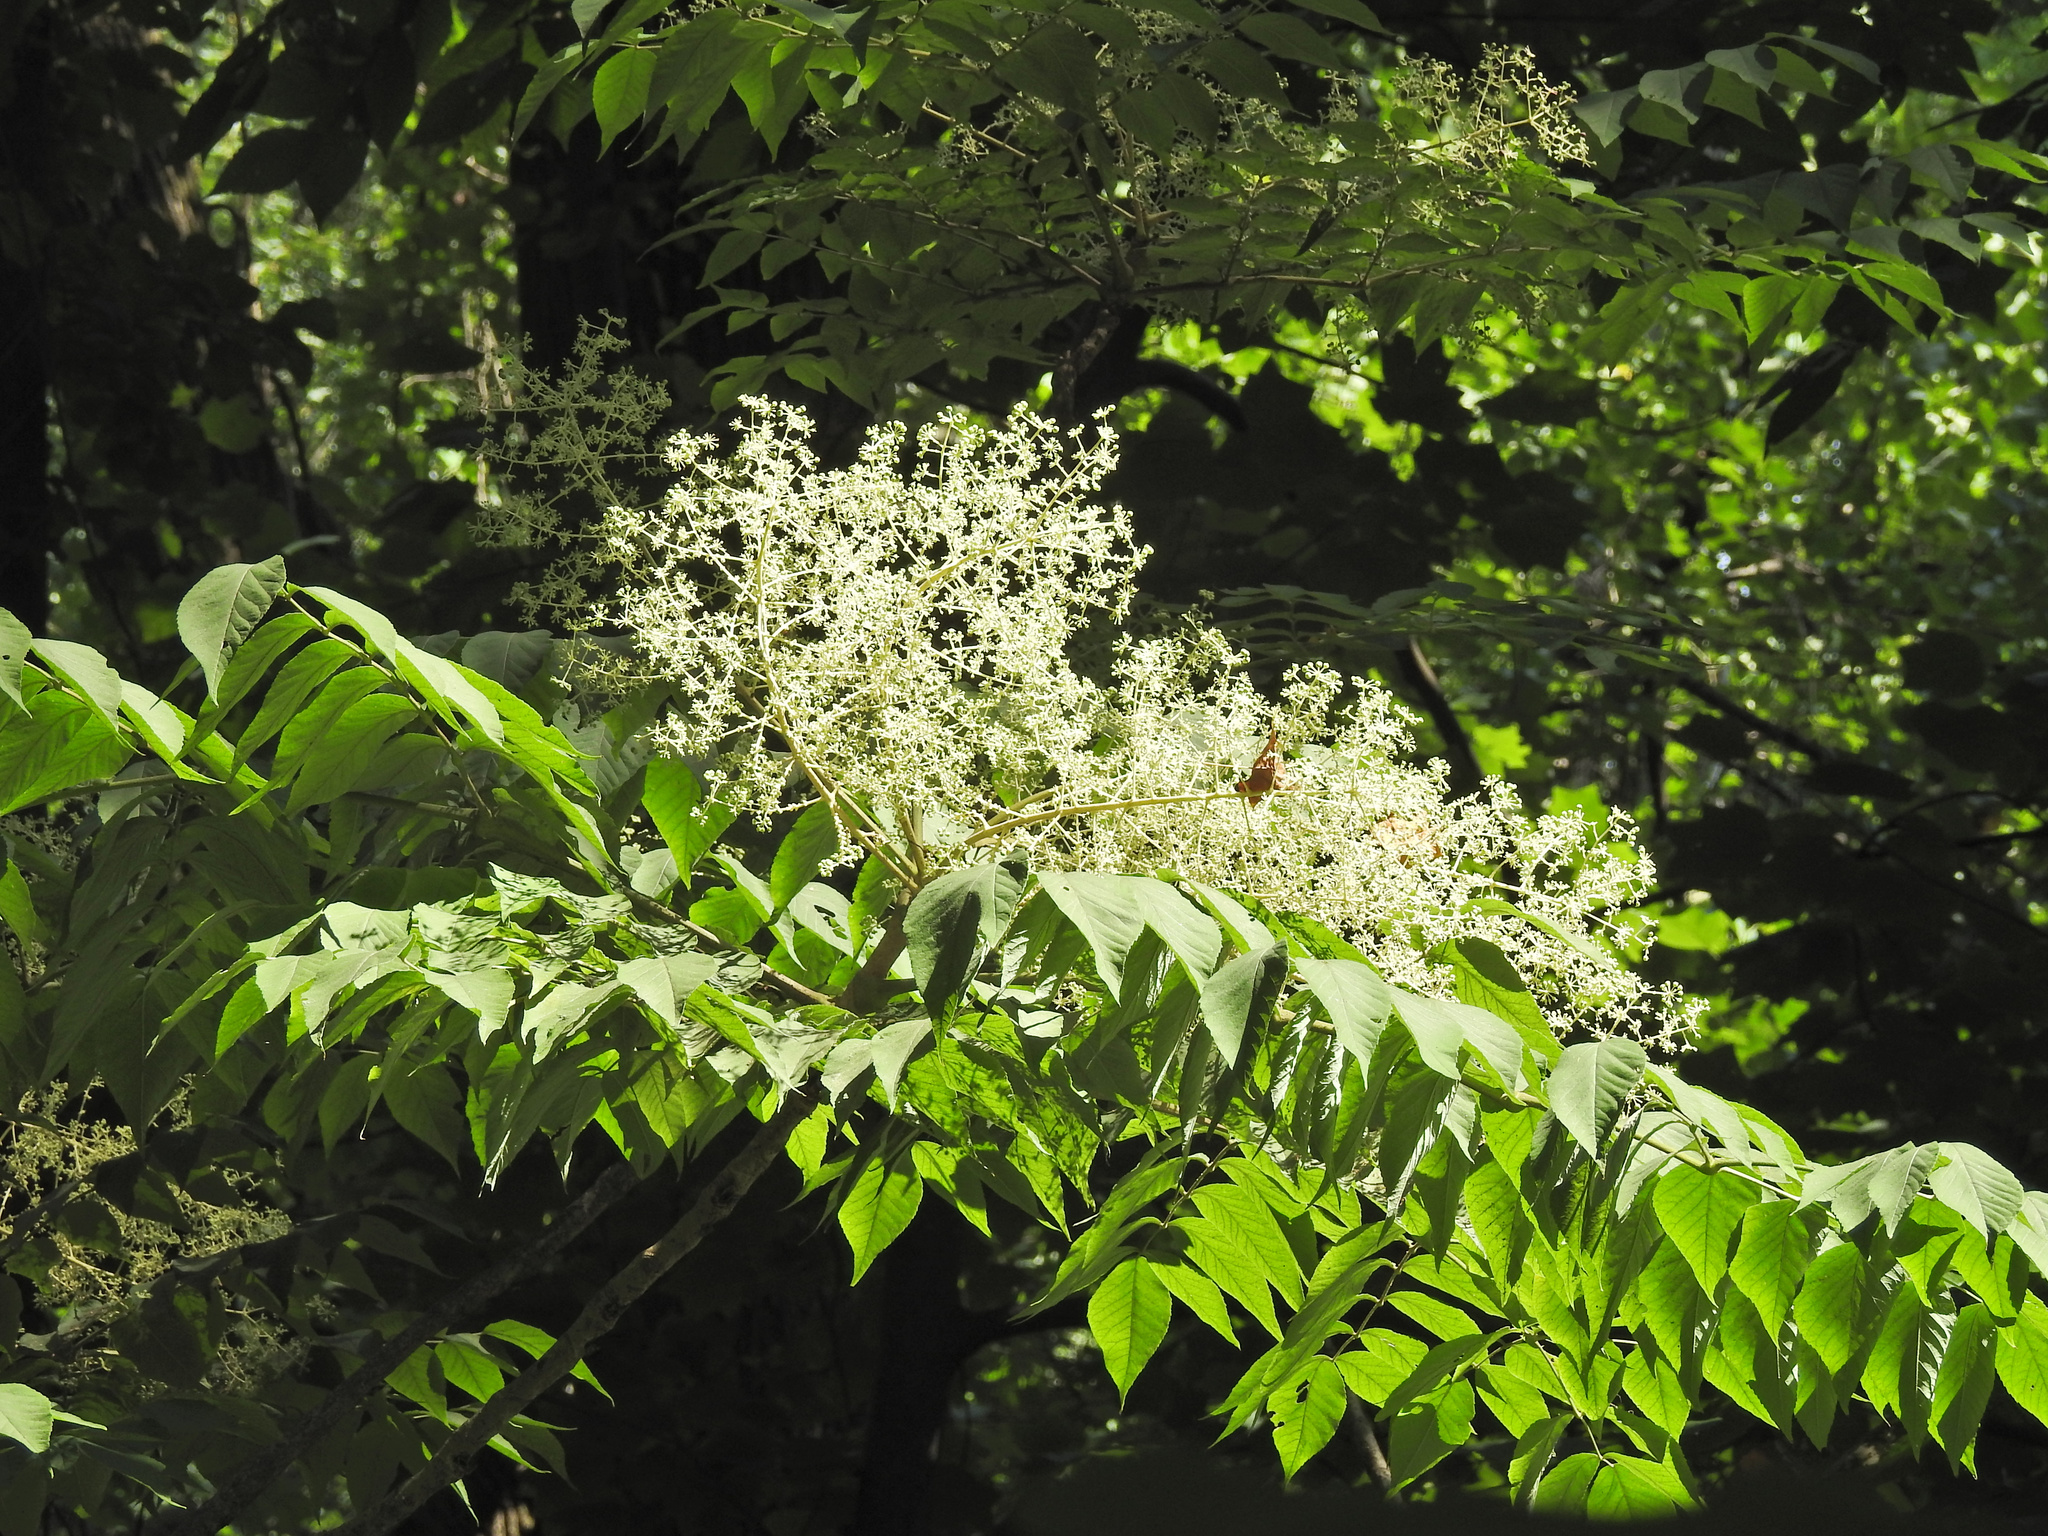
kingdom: Plantae
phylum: Tracheophyta
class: Magnoliopsida
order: Apiales
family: Araliaceae
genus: Aralia
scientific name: Aralia elata
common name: Japanese angelica-tree
